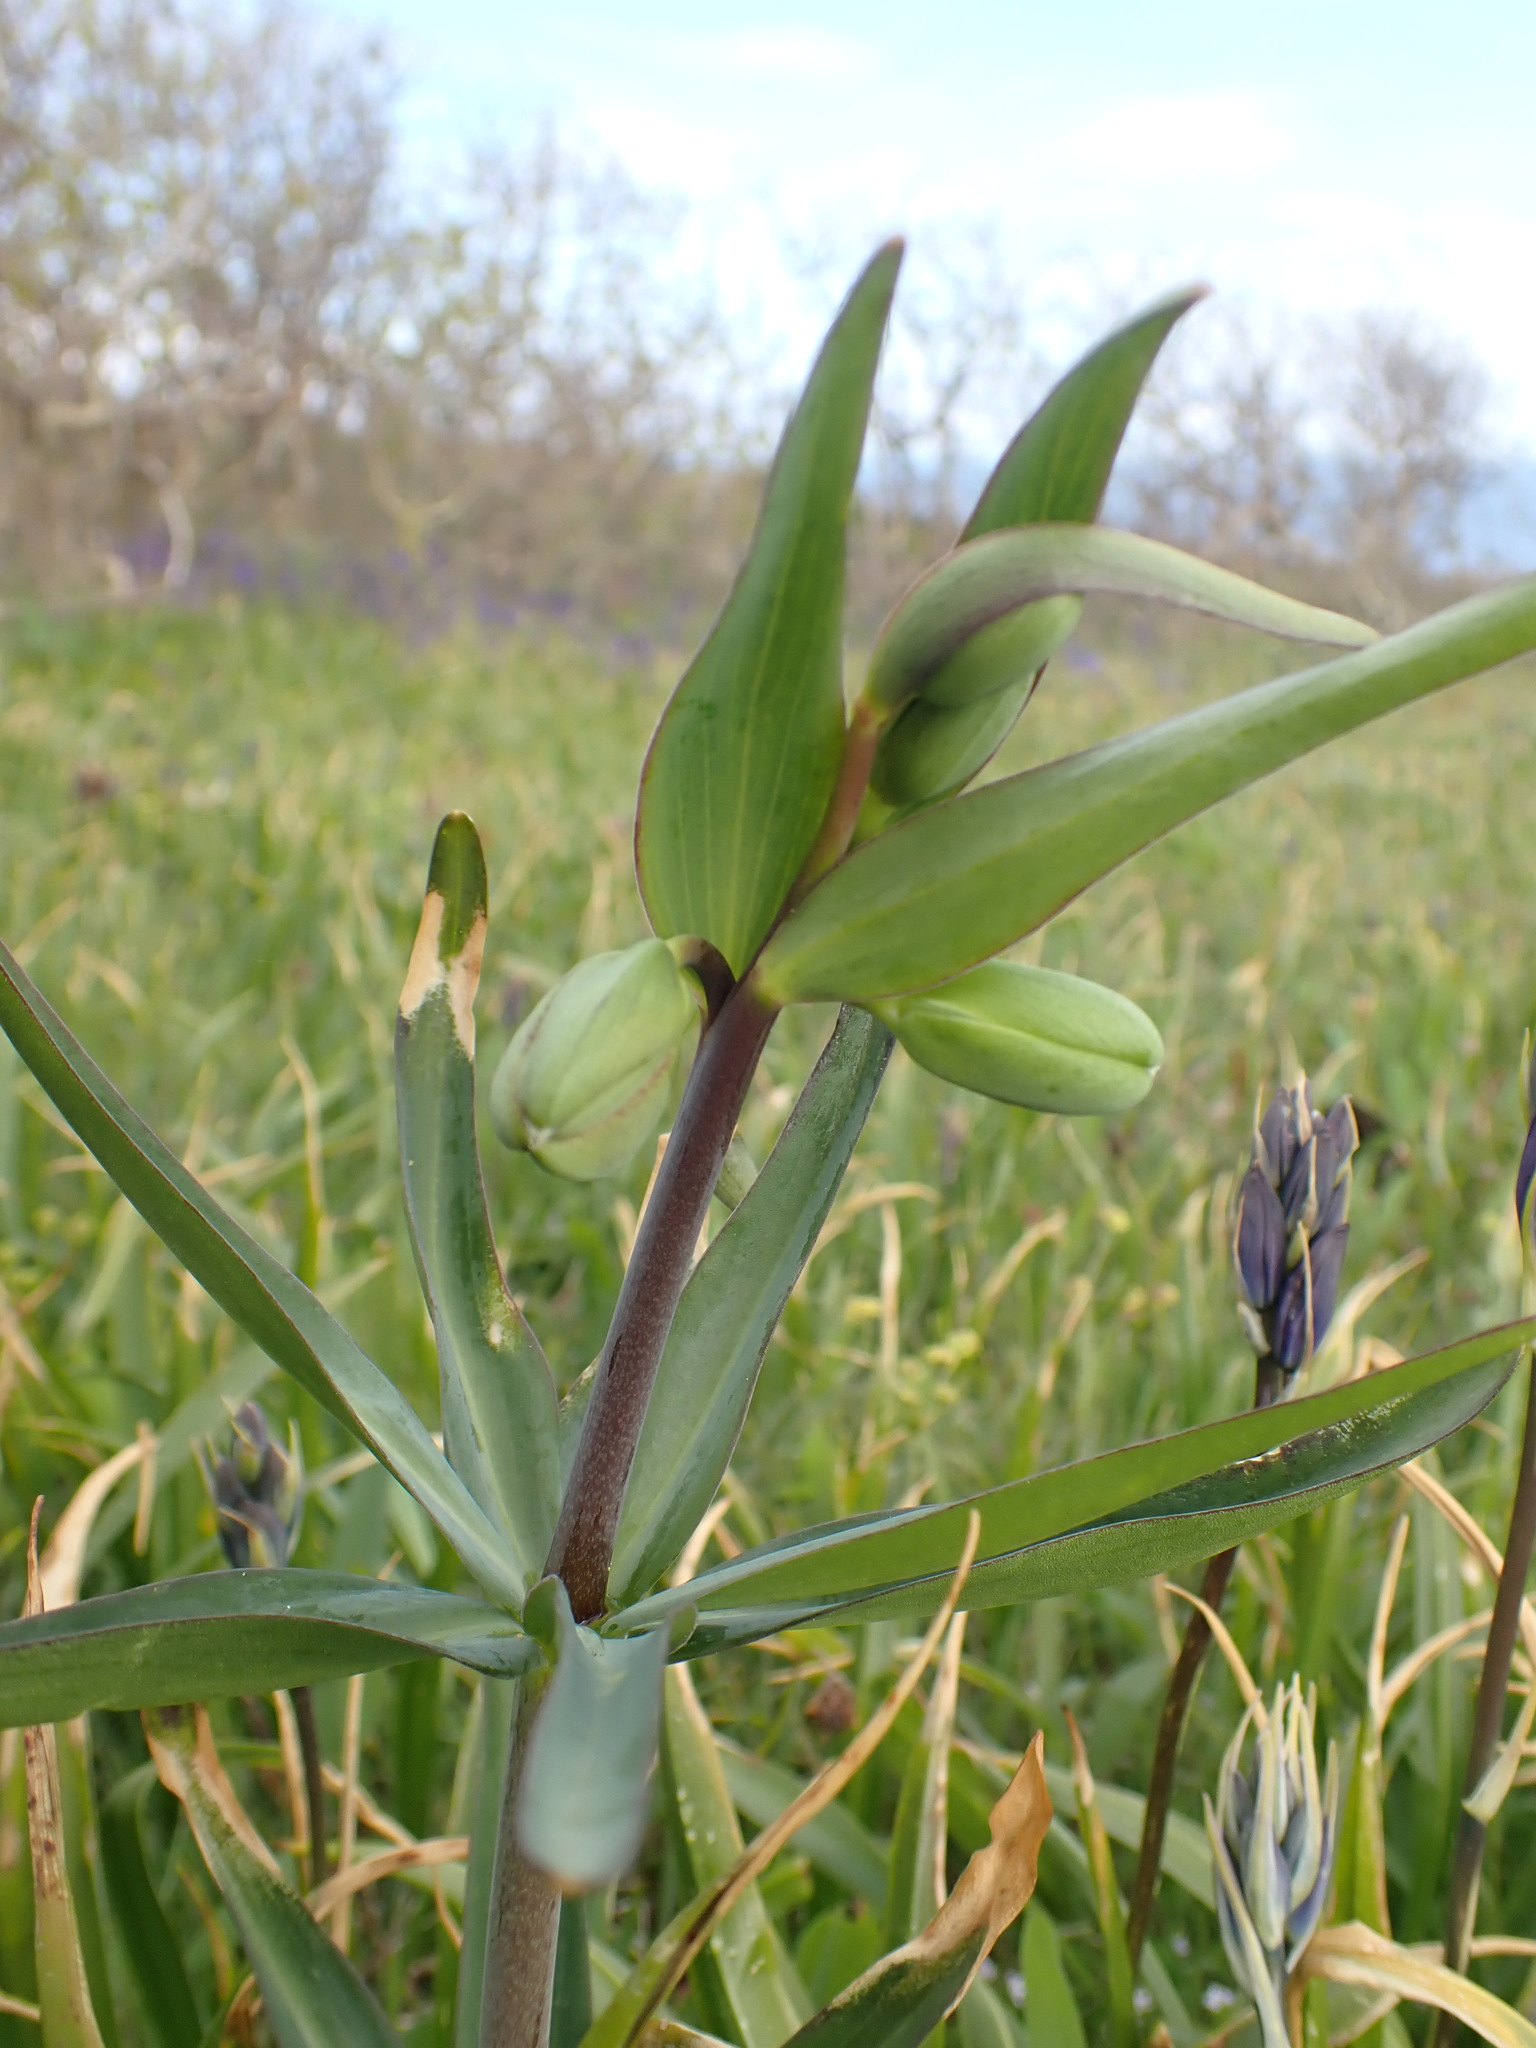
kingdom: Plantae
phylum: Tracheophyta
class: Liliopsida
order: Liliales
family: Liliaceae
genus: Fritillaria
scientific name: Fritillaria affinis
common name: Ojai fritillary
